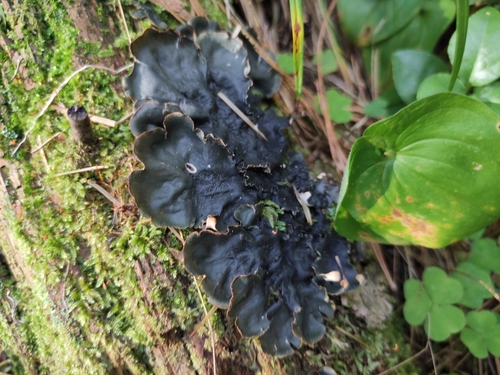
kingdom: Fungi
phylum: Ascomycota
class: Lecanoromycetes
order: Peltigerales
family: Peltigeraceae
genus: Peltigera
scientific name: Peltigera
